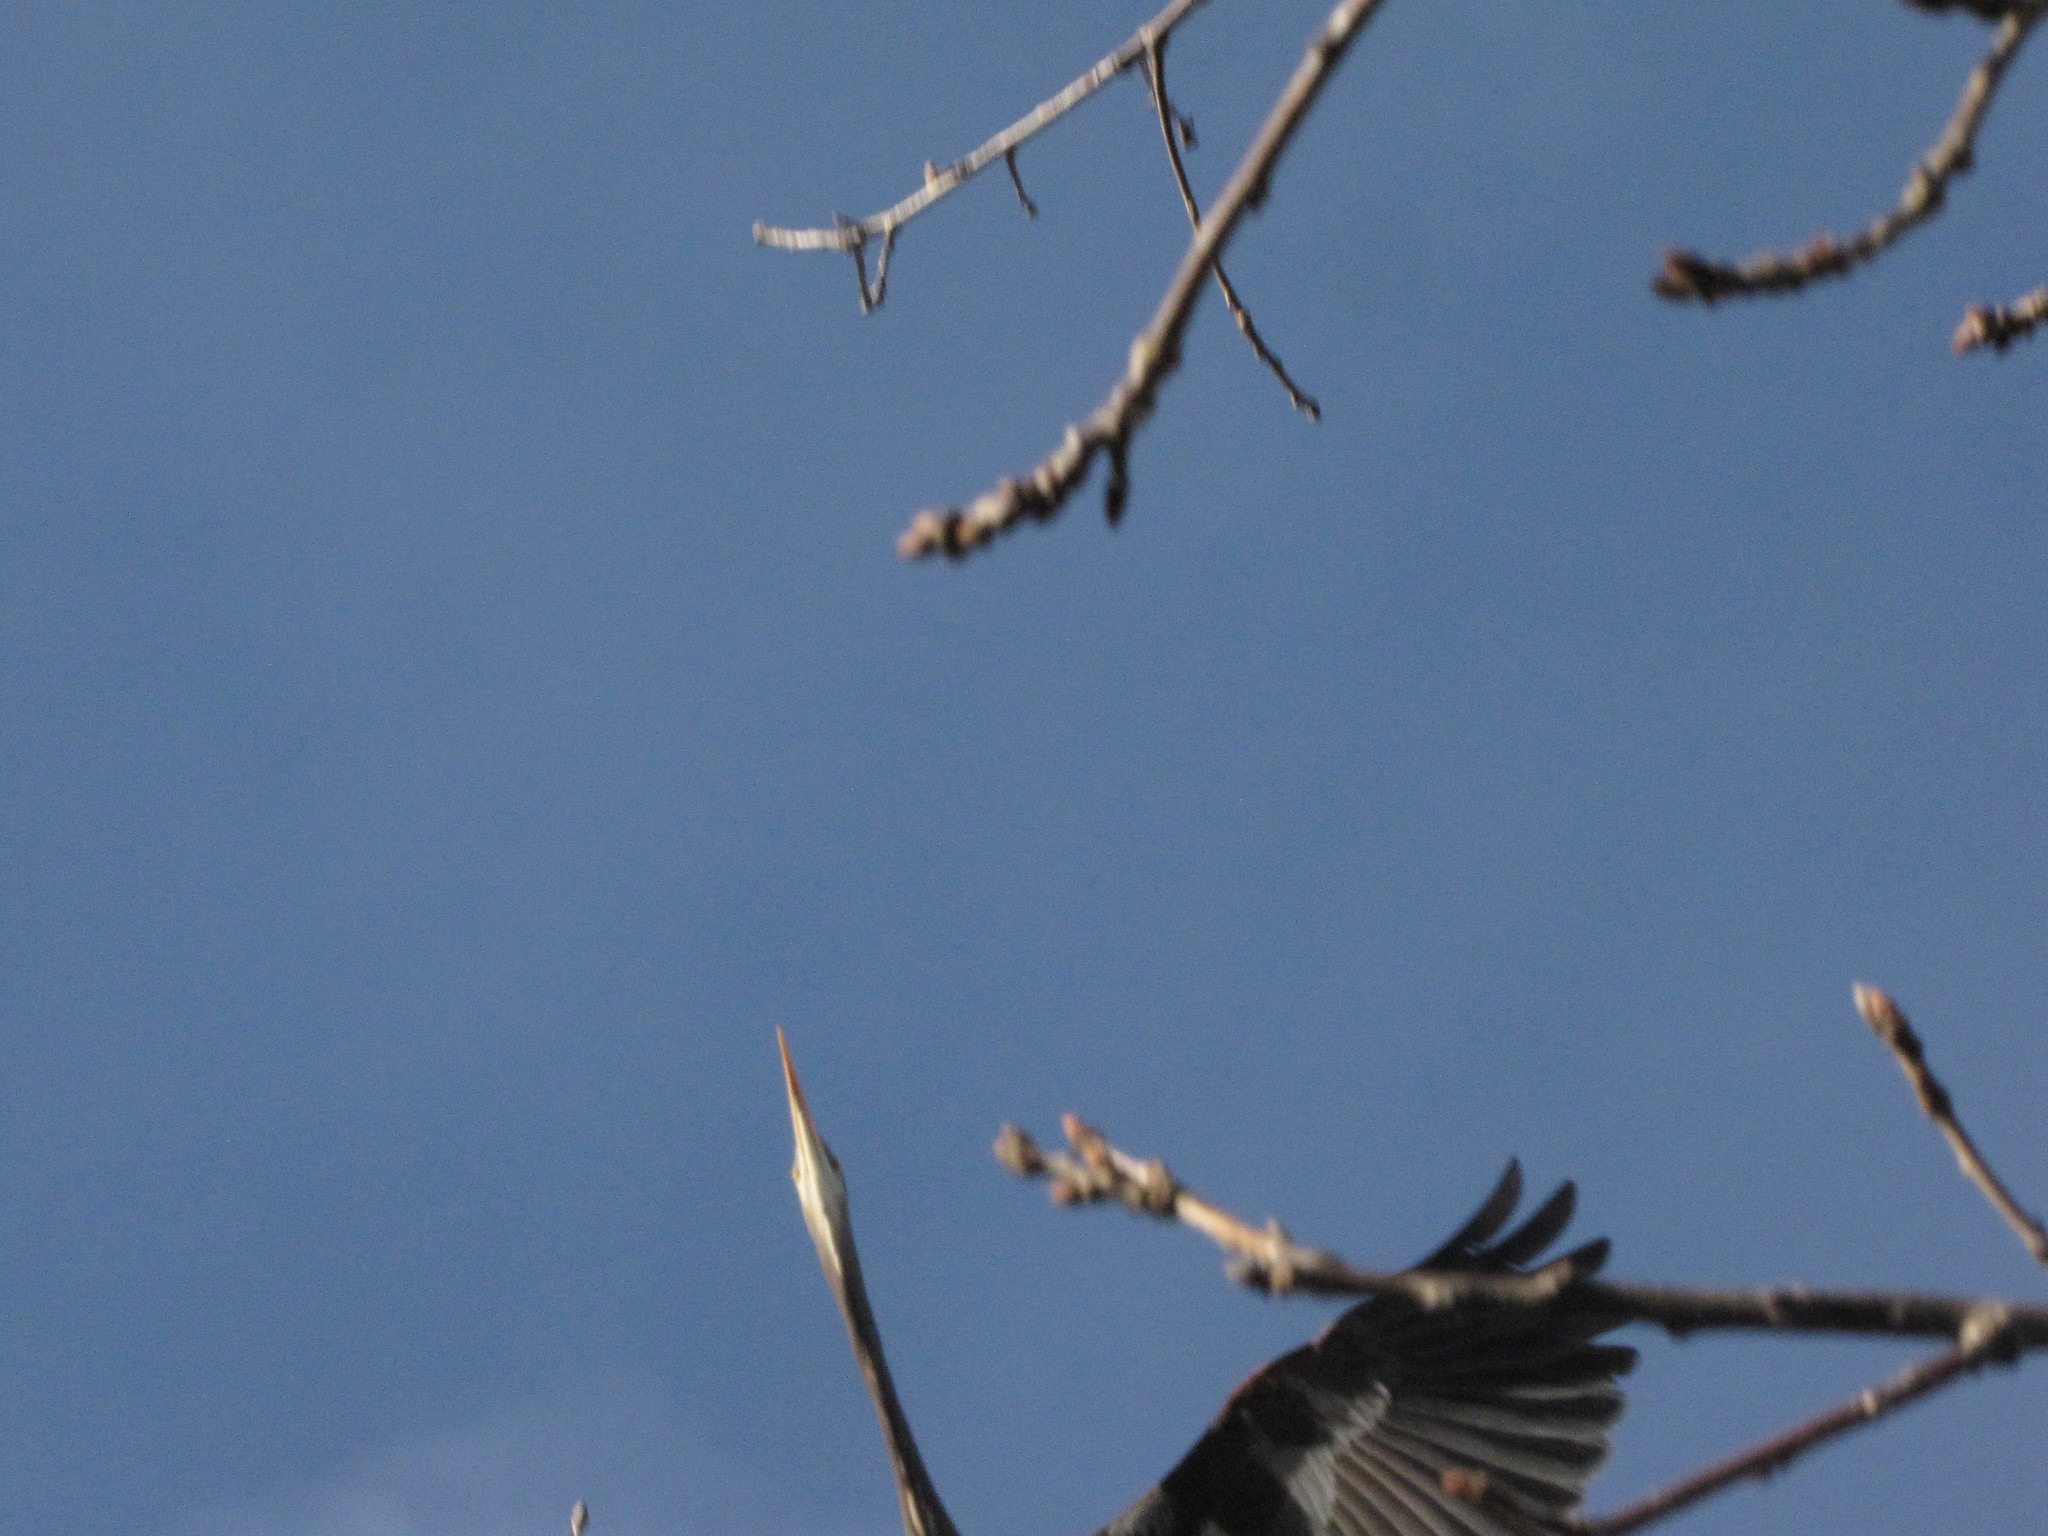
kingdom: Animalia
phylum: Chordata
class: Aves
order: Pelecaniformes
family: Ardeidae
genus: Ardea
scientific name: Ardea herodias
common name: Great blue heron
